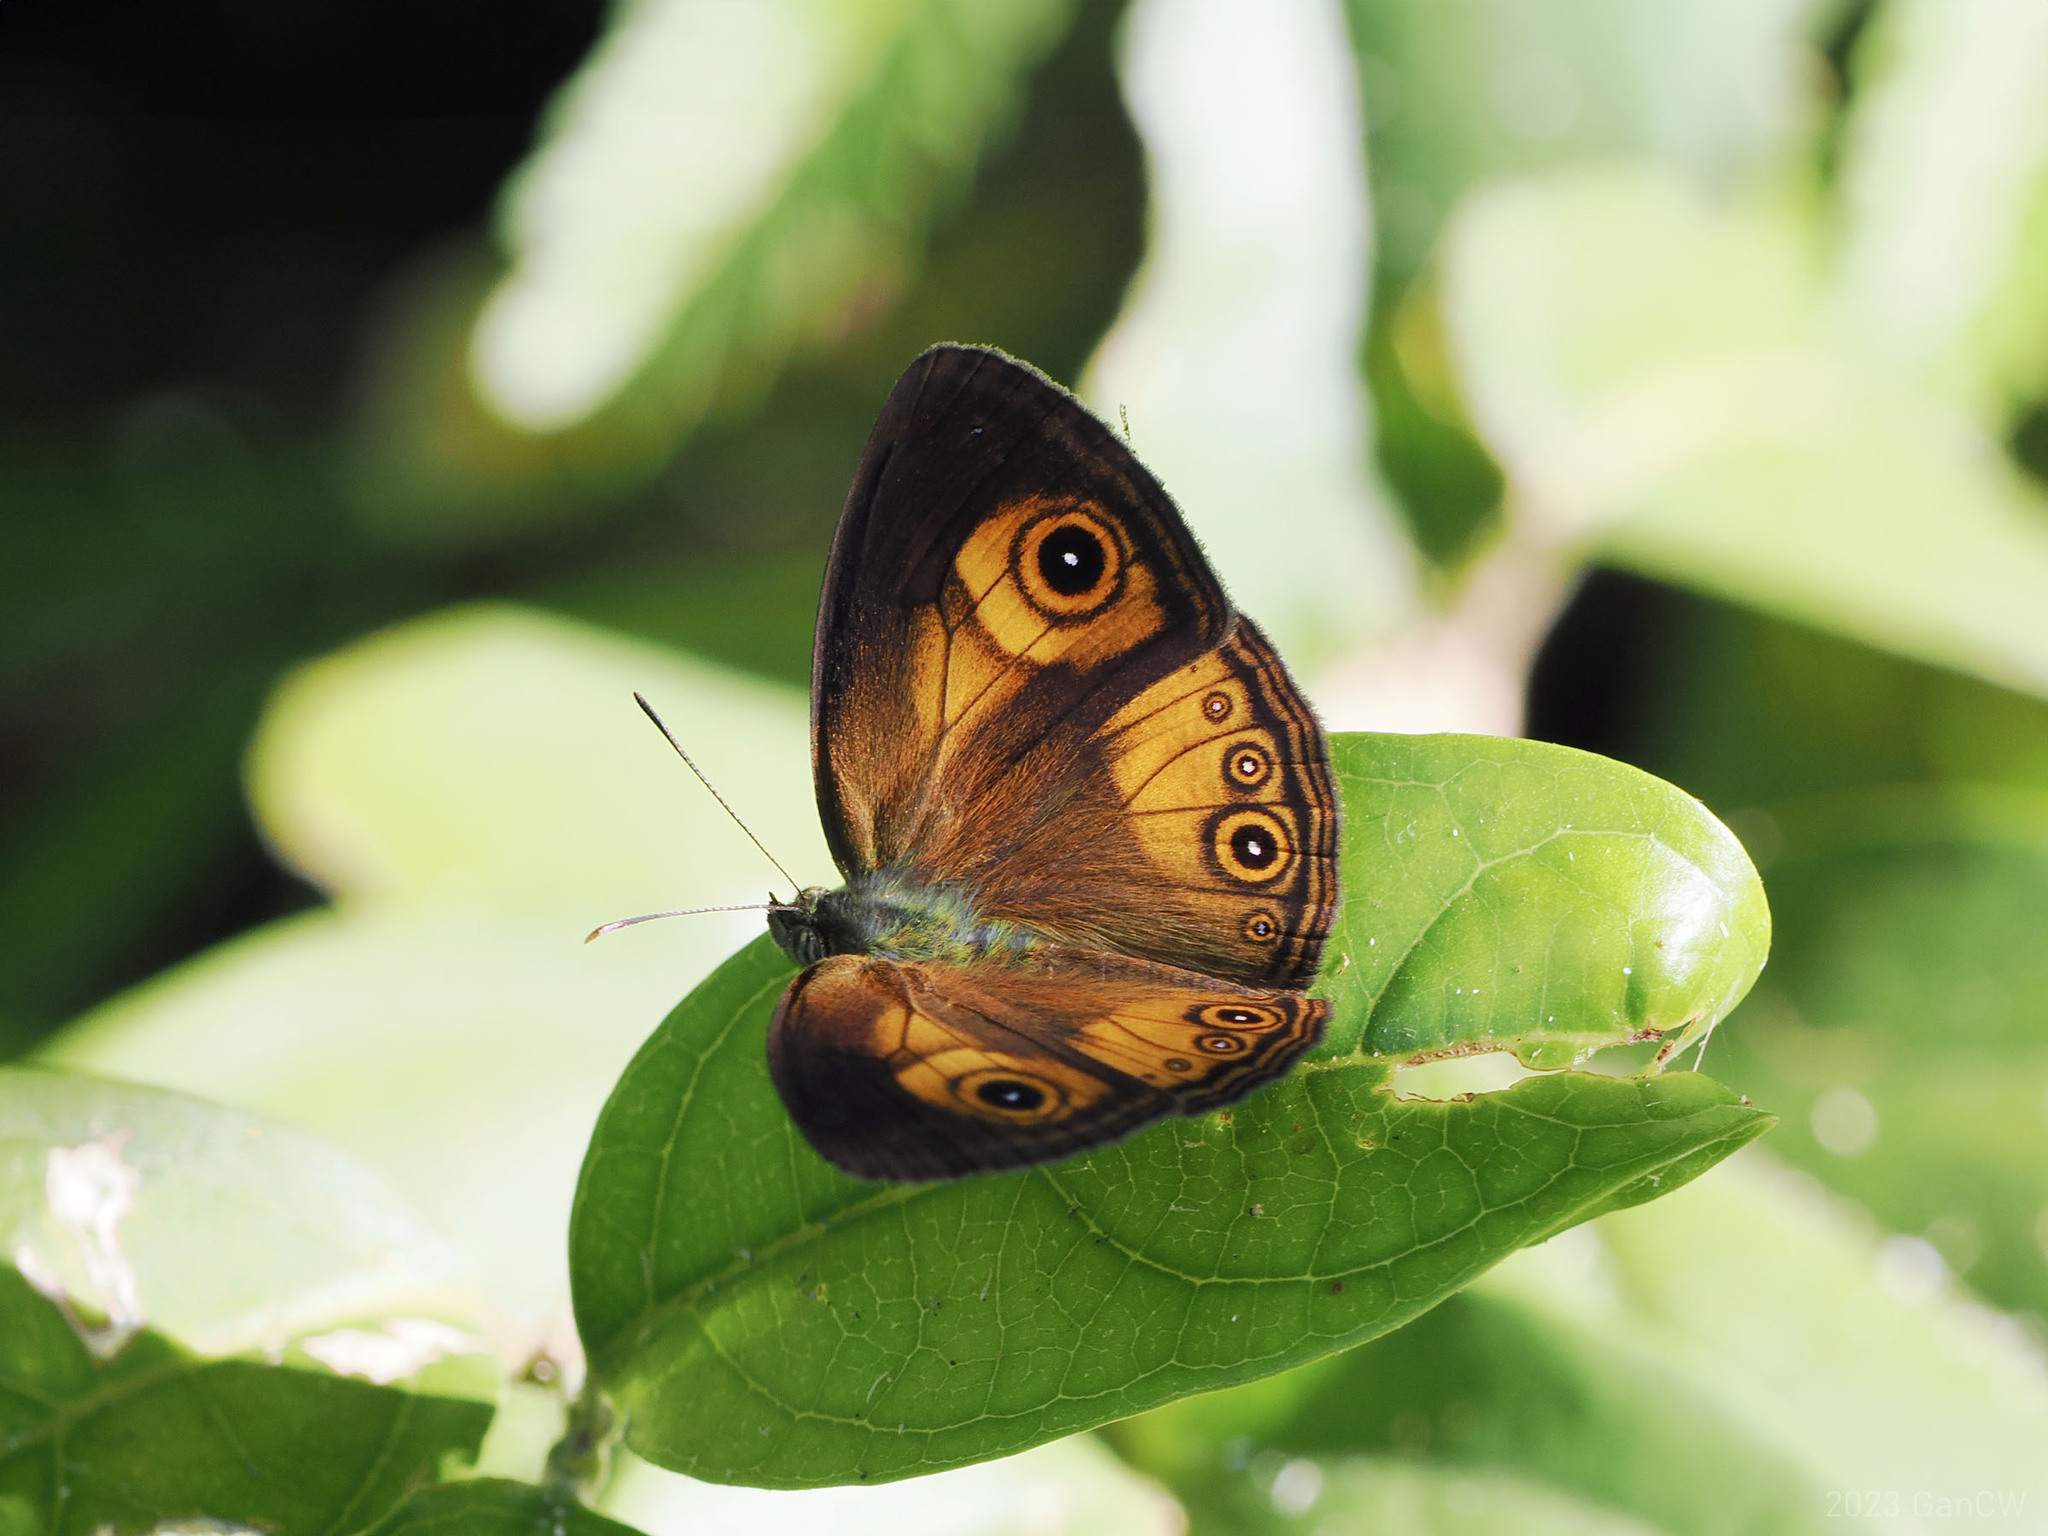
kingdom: Animalia
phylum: Arthropoda
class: Insecta
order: Lepidoptera
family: Nymphalidae
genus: Mycalesis
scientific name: Mycalesis ita
